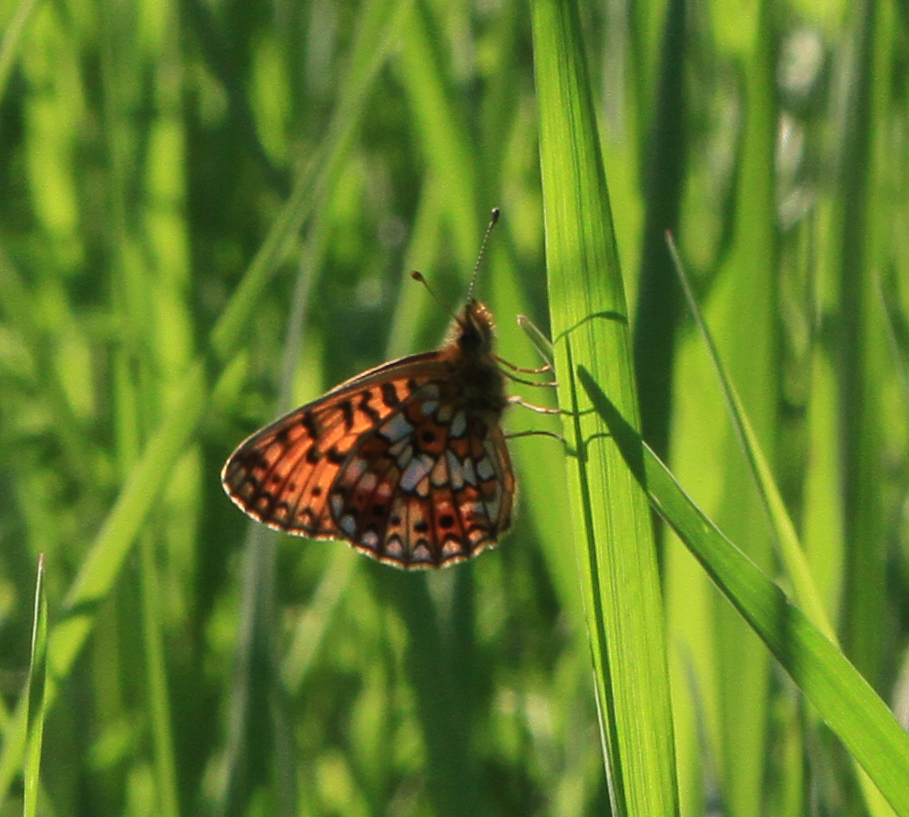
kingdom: Animalia
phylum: Arthropoda
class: Insecta
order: Lepidoptera
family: Nymphalidae
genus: Boloria
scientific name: Boloria selene
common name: Small pearl-bordered fritillary
